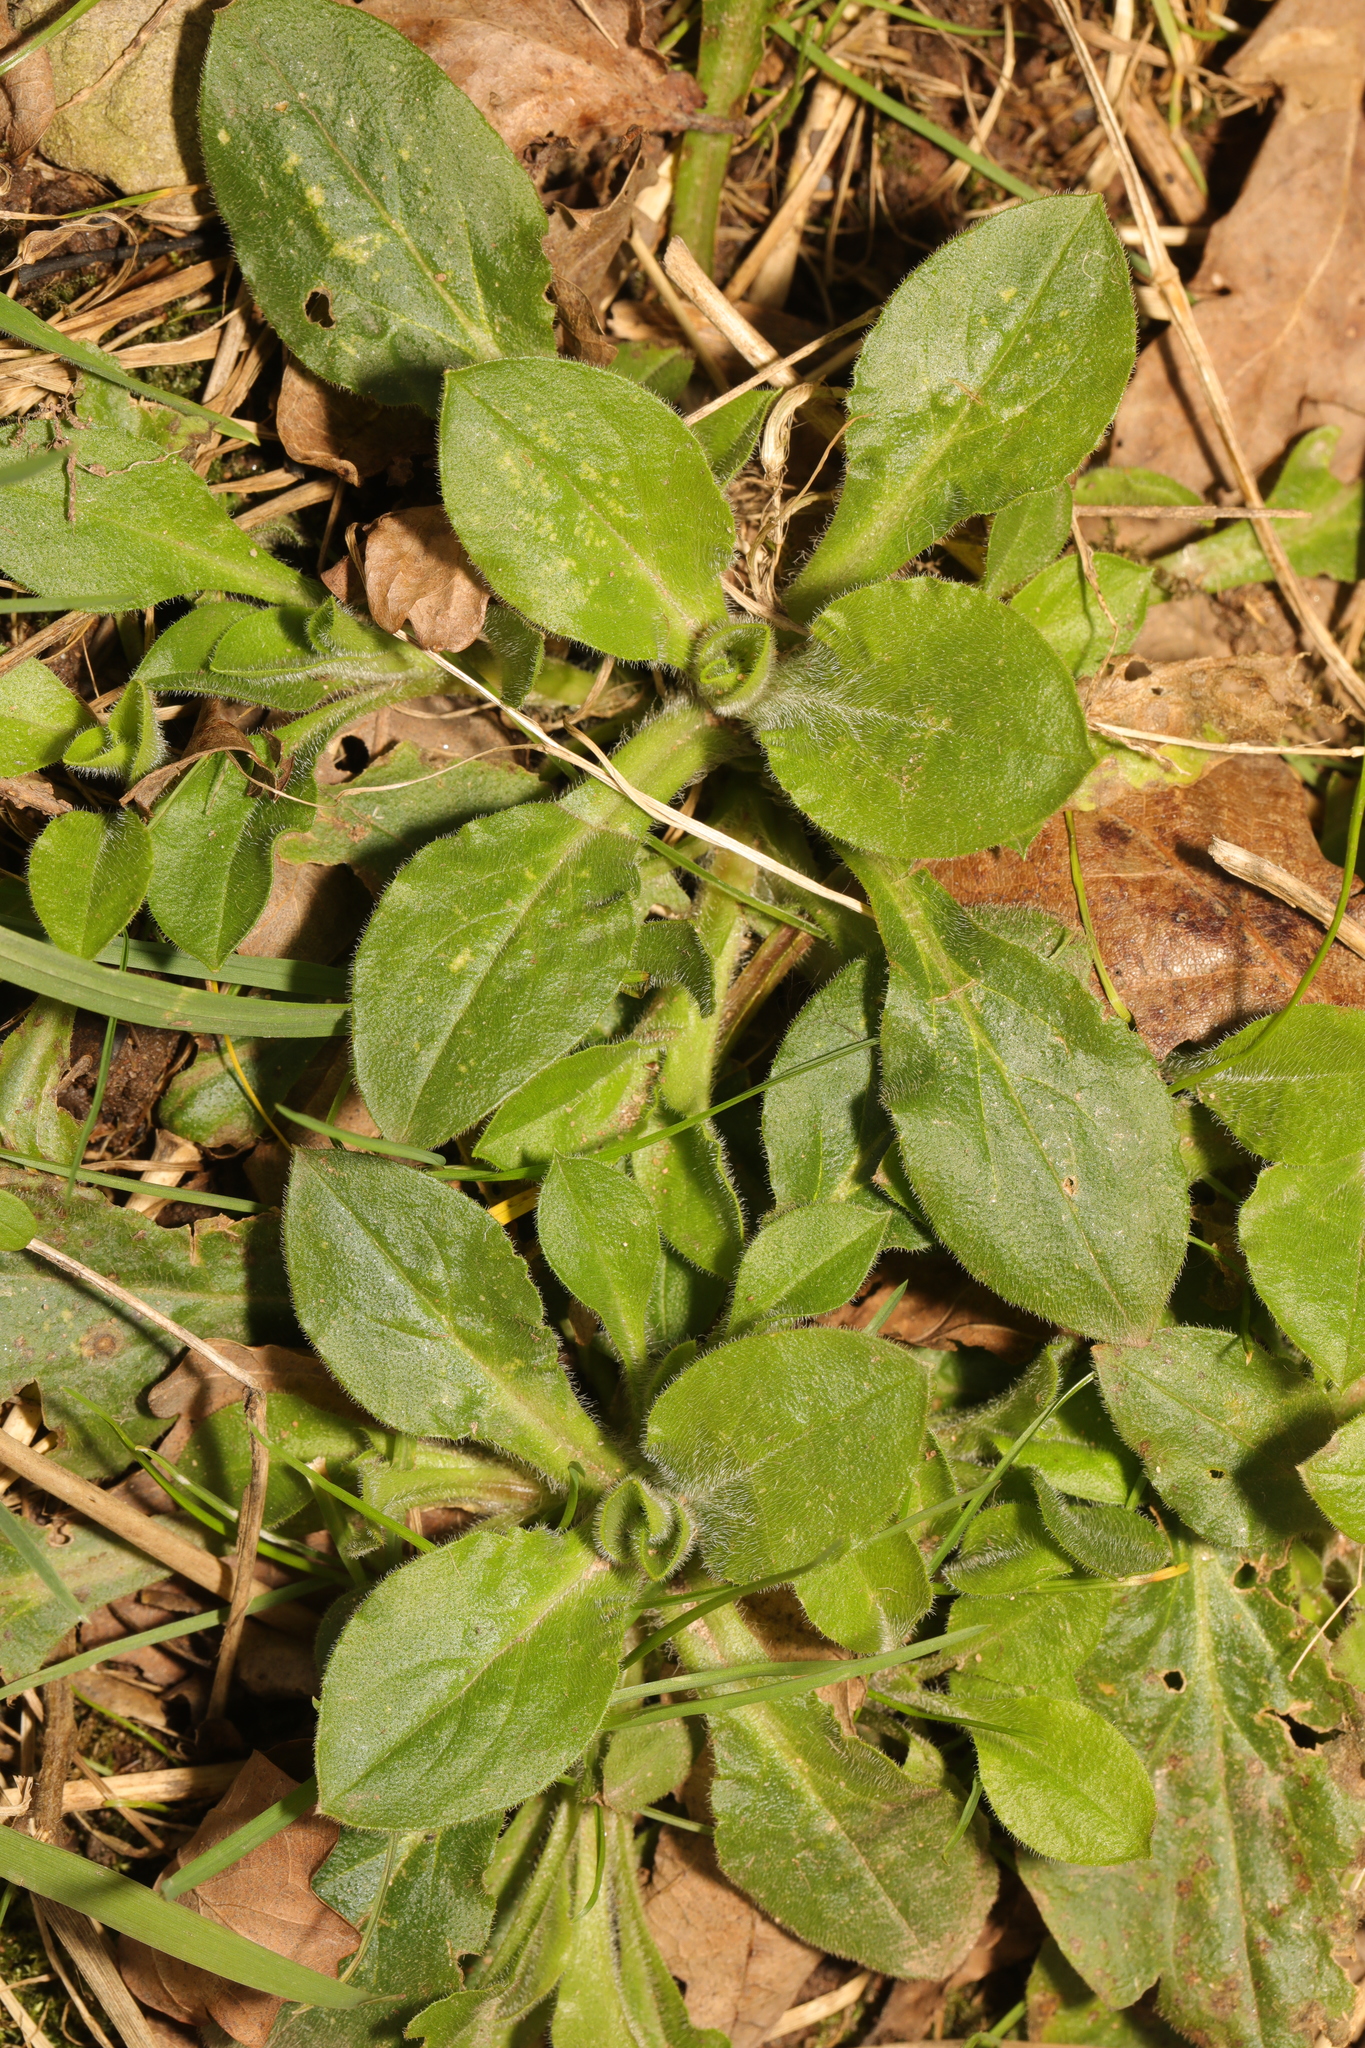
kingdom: Plantae
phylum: Tracheophyta
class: Magnoliopsida
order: Caryophyllales
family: Caryophyllaceae
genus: Silene
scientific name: Silene dioica
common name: Red campion
